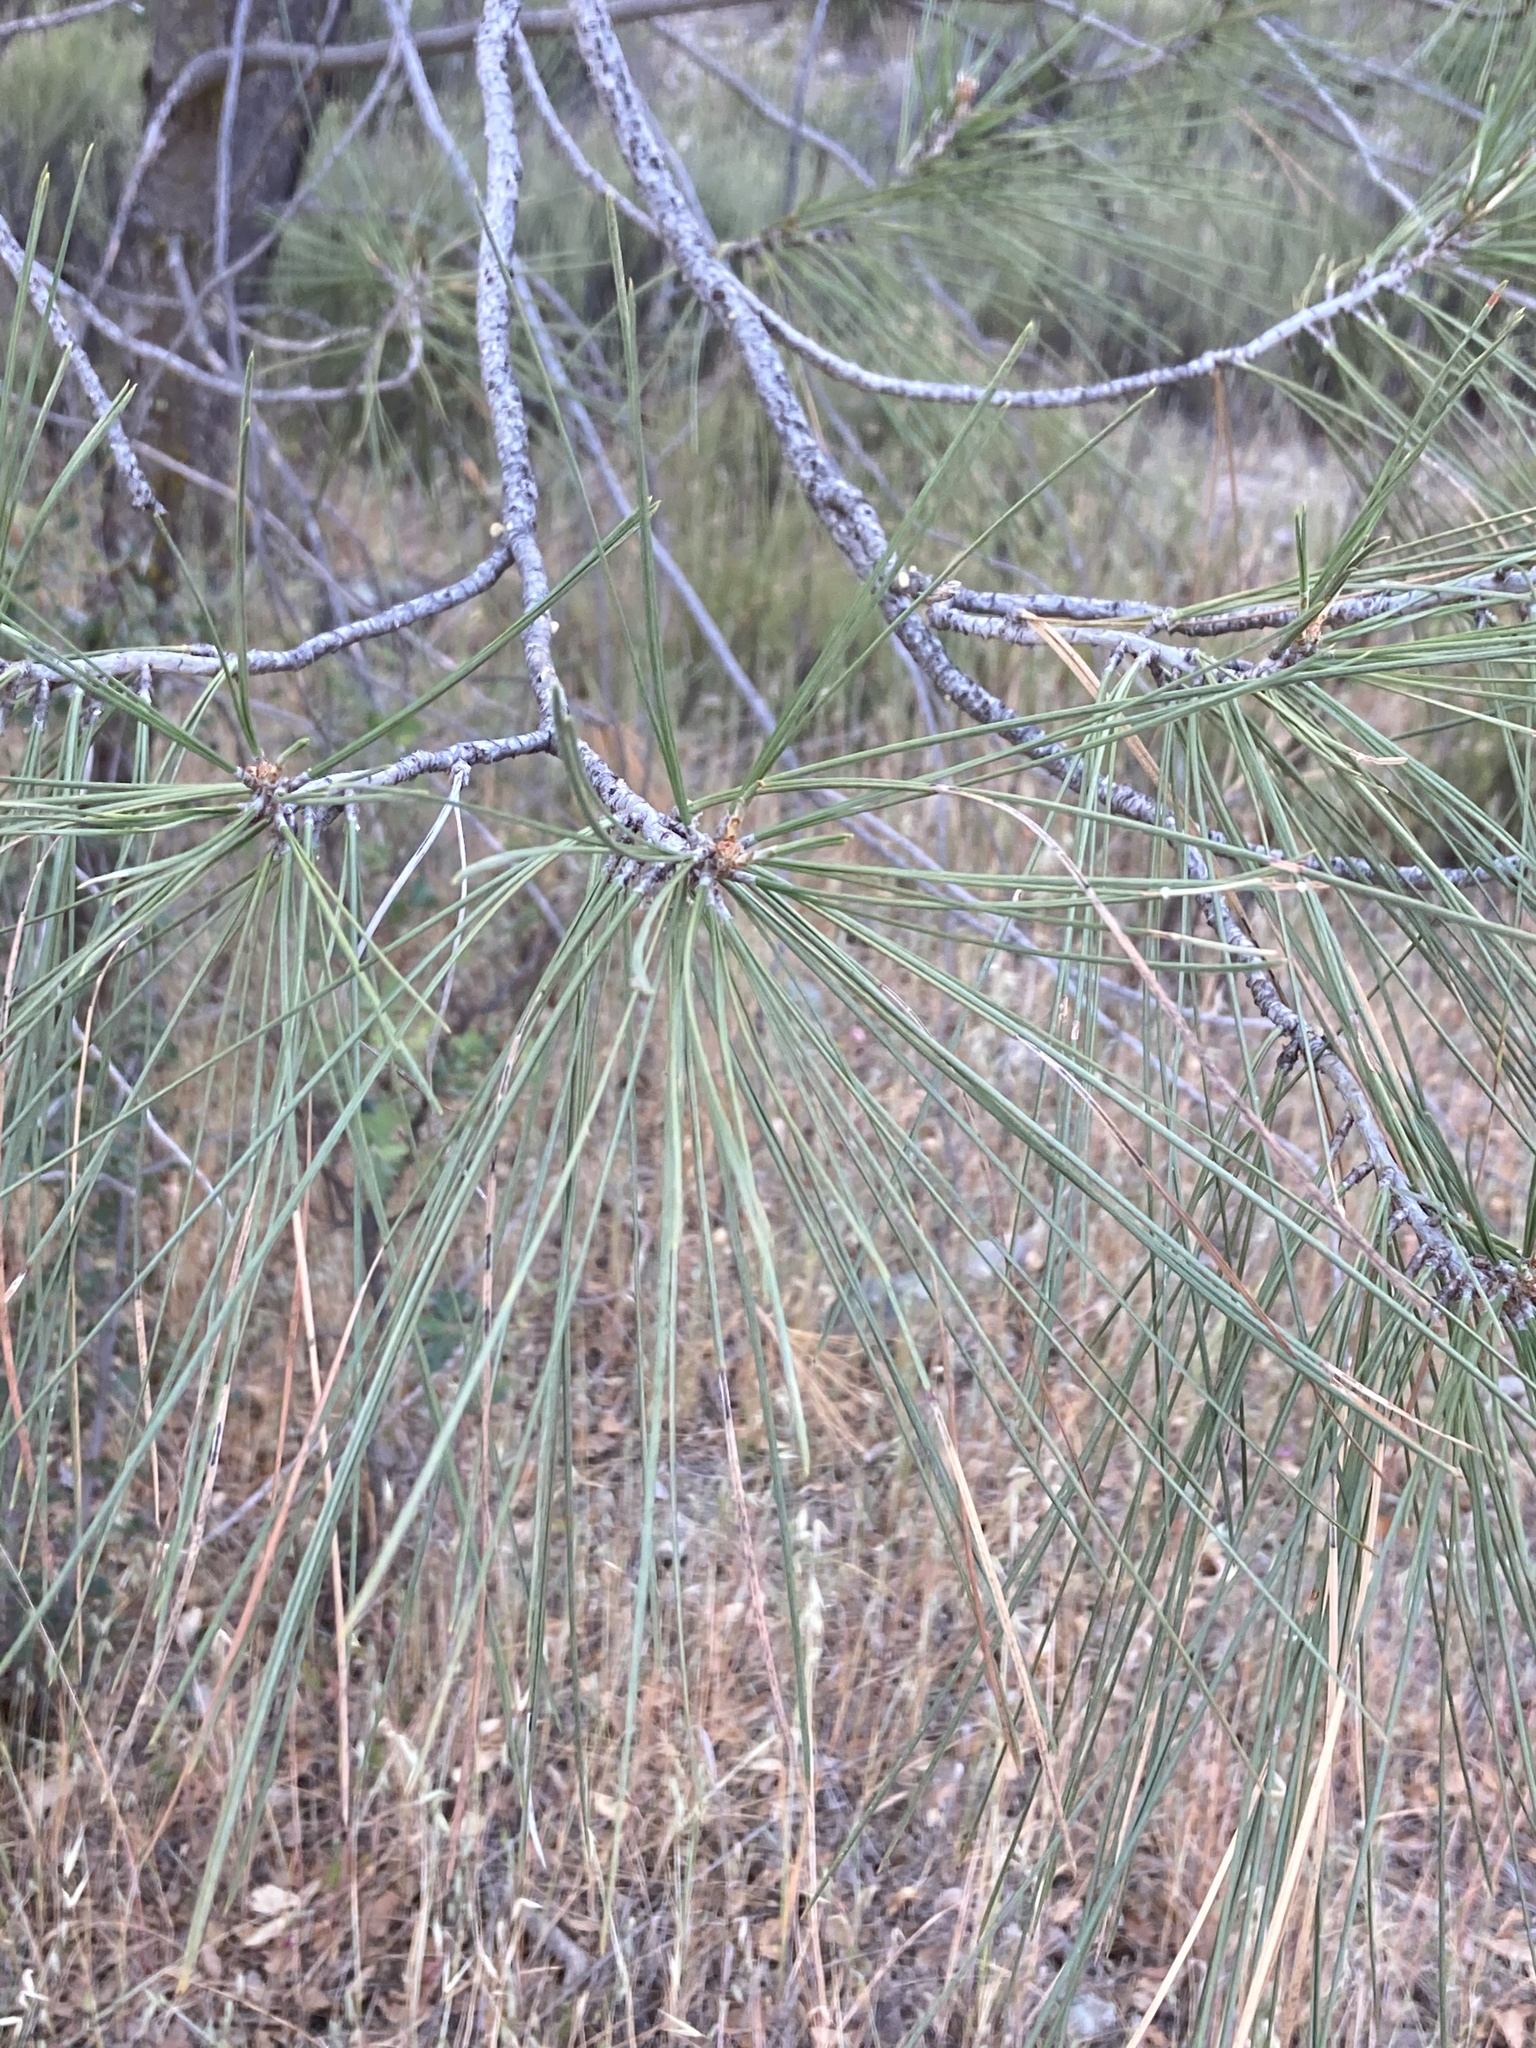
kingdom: Plantae
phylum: Tracheophyta
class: Pinopsida
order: Pinales
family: Pinaceae
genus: Pinus
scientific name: Pinus sabiniana
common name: Bull pine
